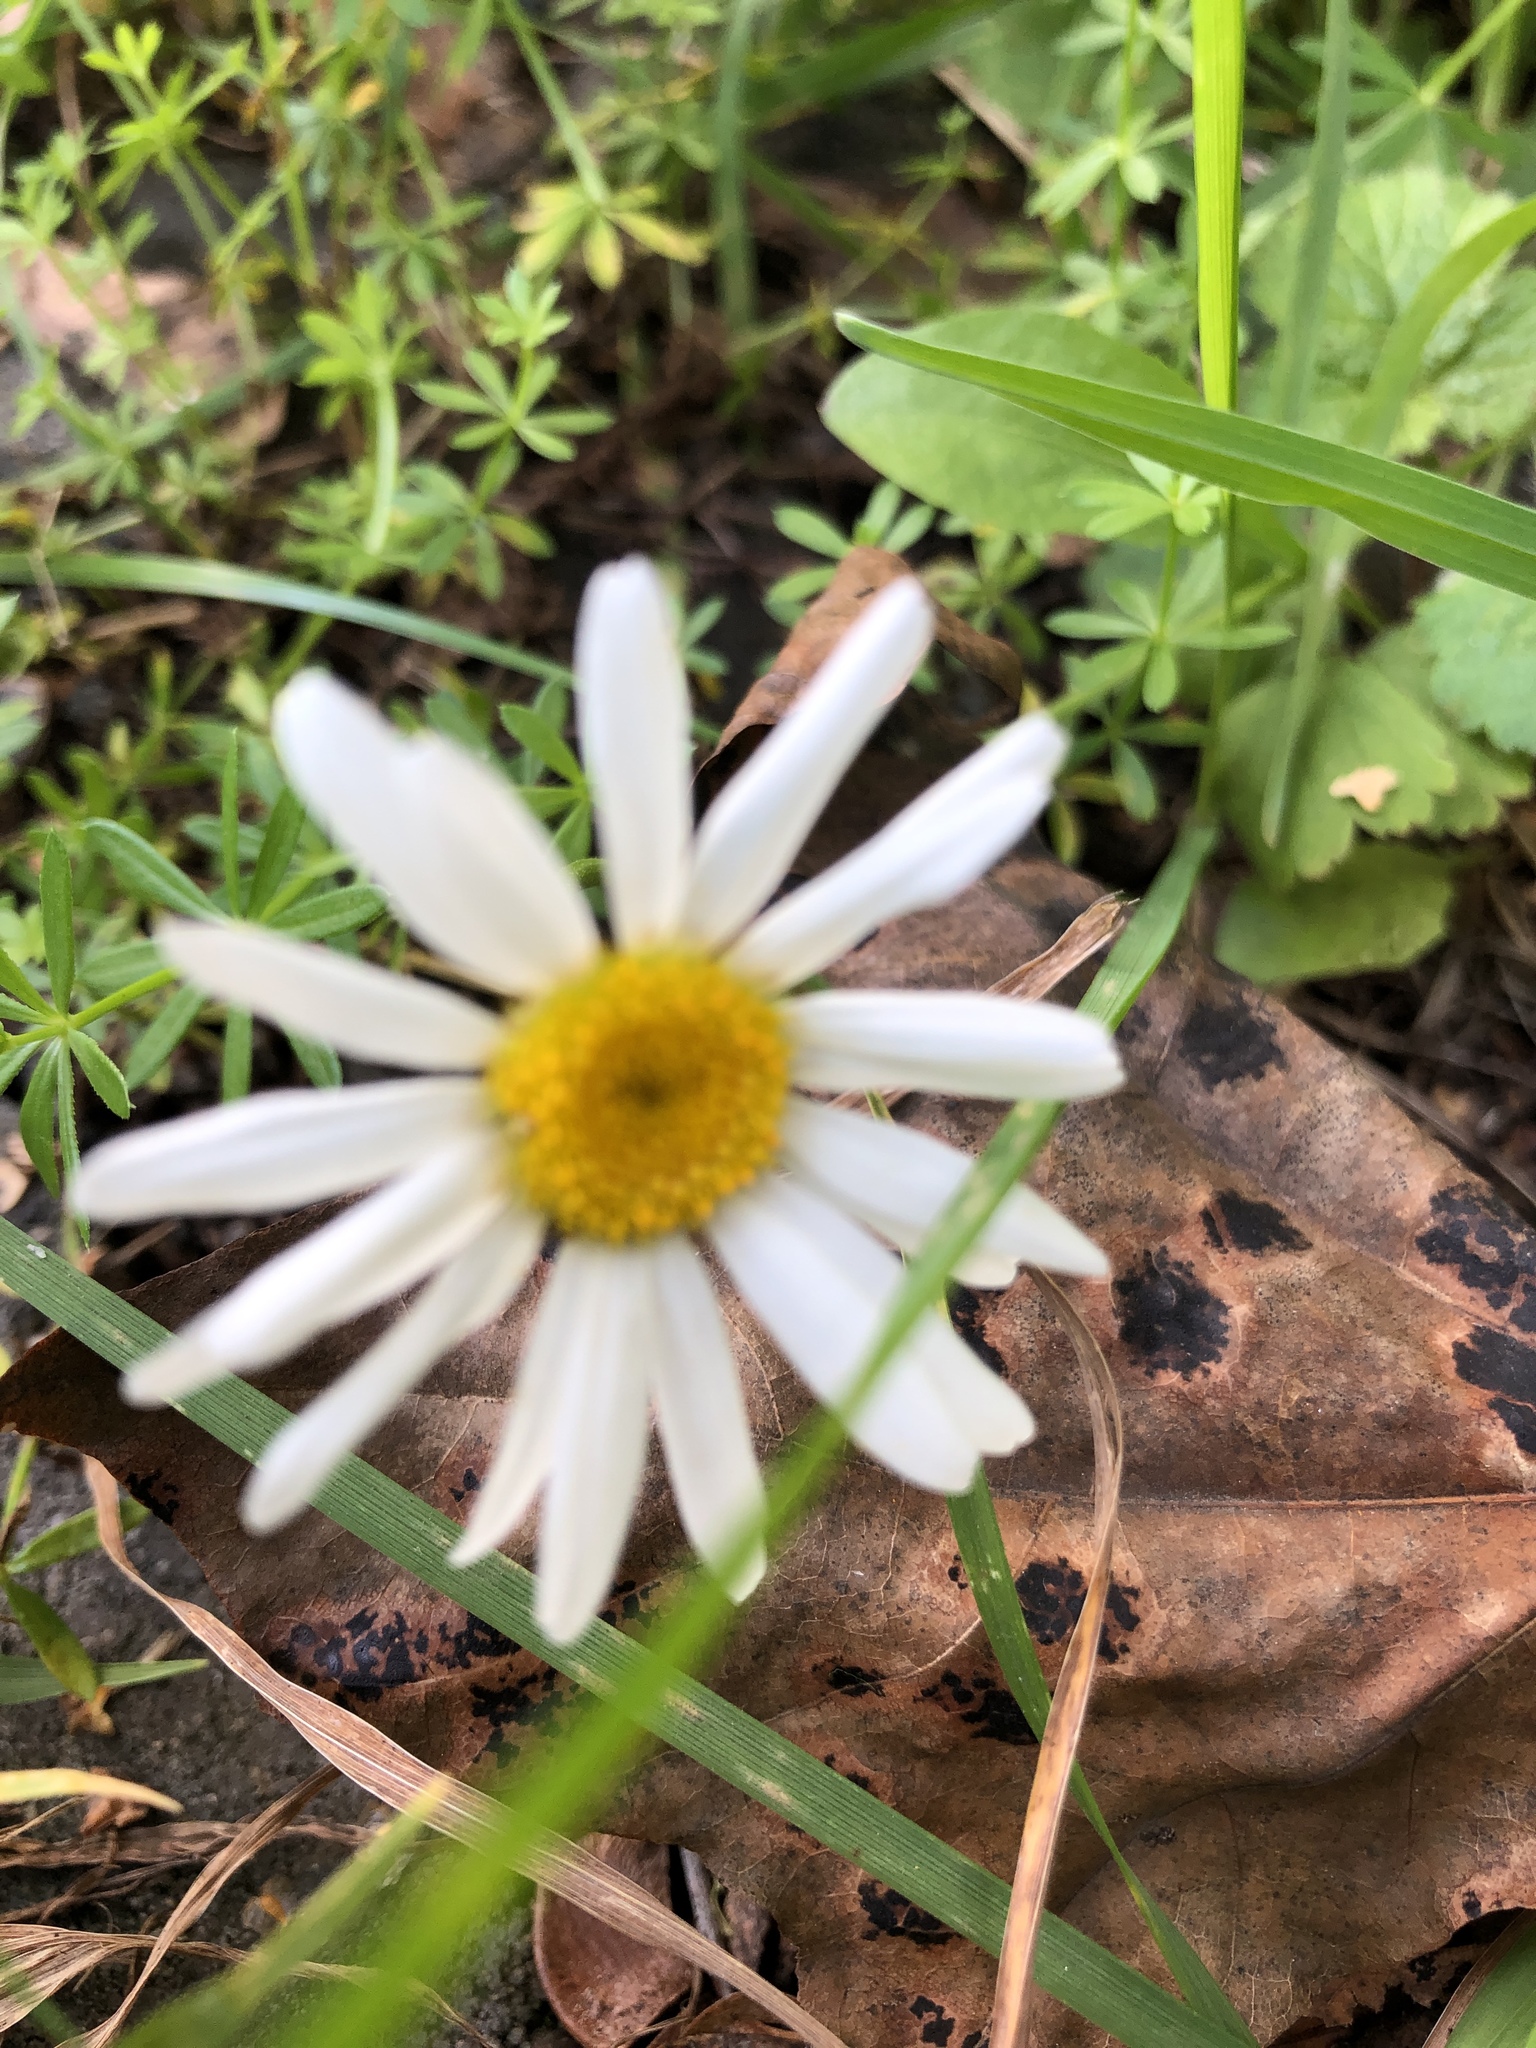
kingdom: Plantae
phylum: Tracheophyta
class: Magnoliopsida
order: Asterales
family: Asteraceae
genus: Leucanthemum
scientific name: Leucanthemum vulgare
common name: Oxeye daisy
